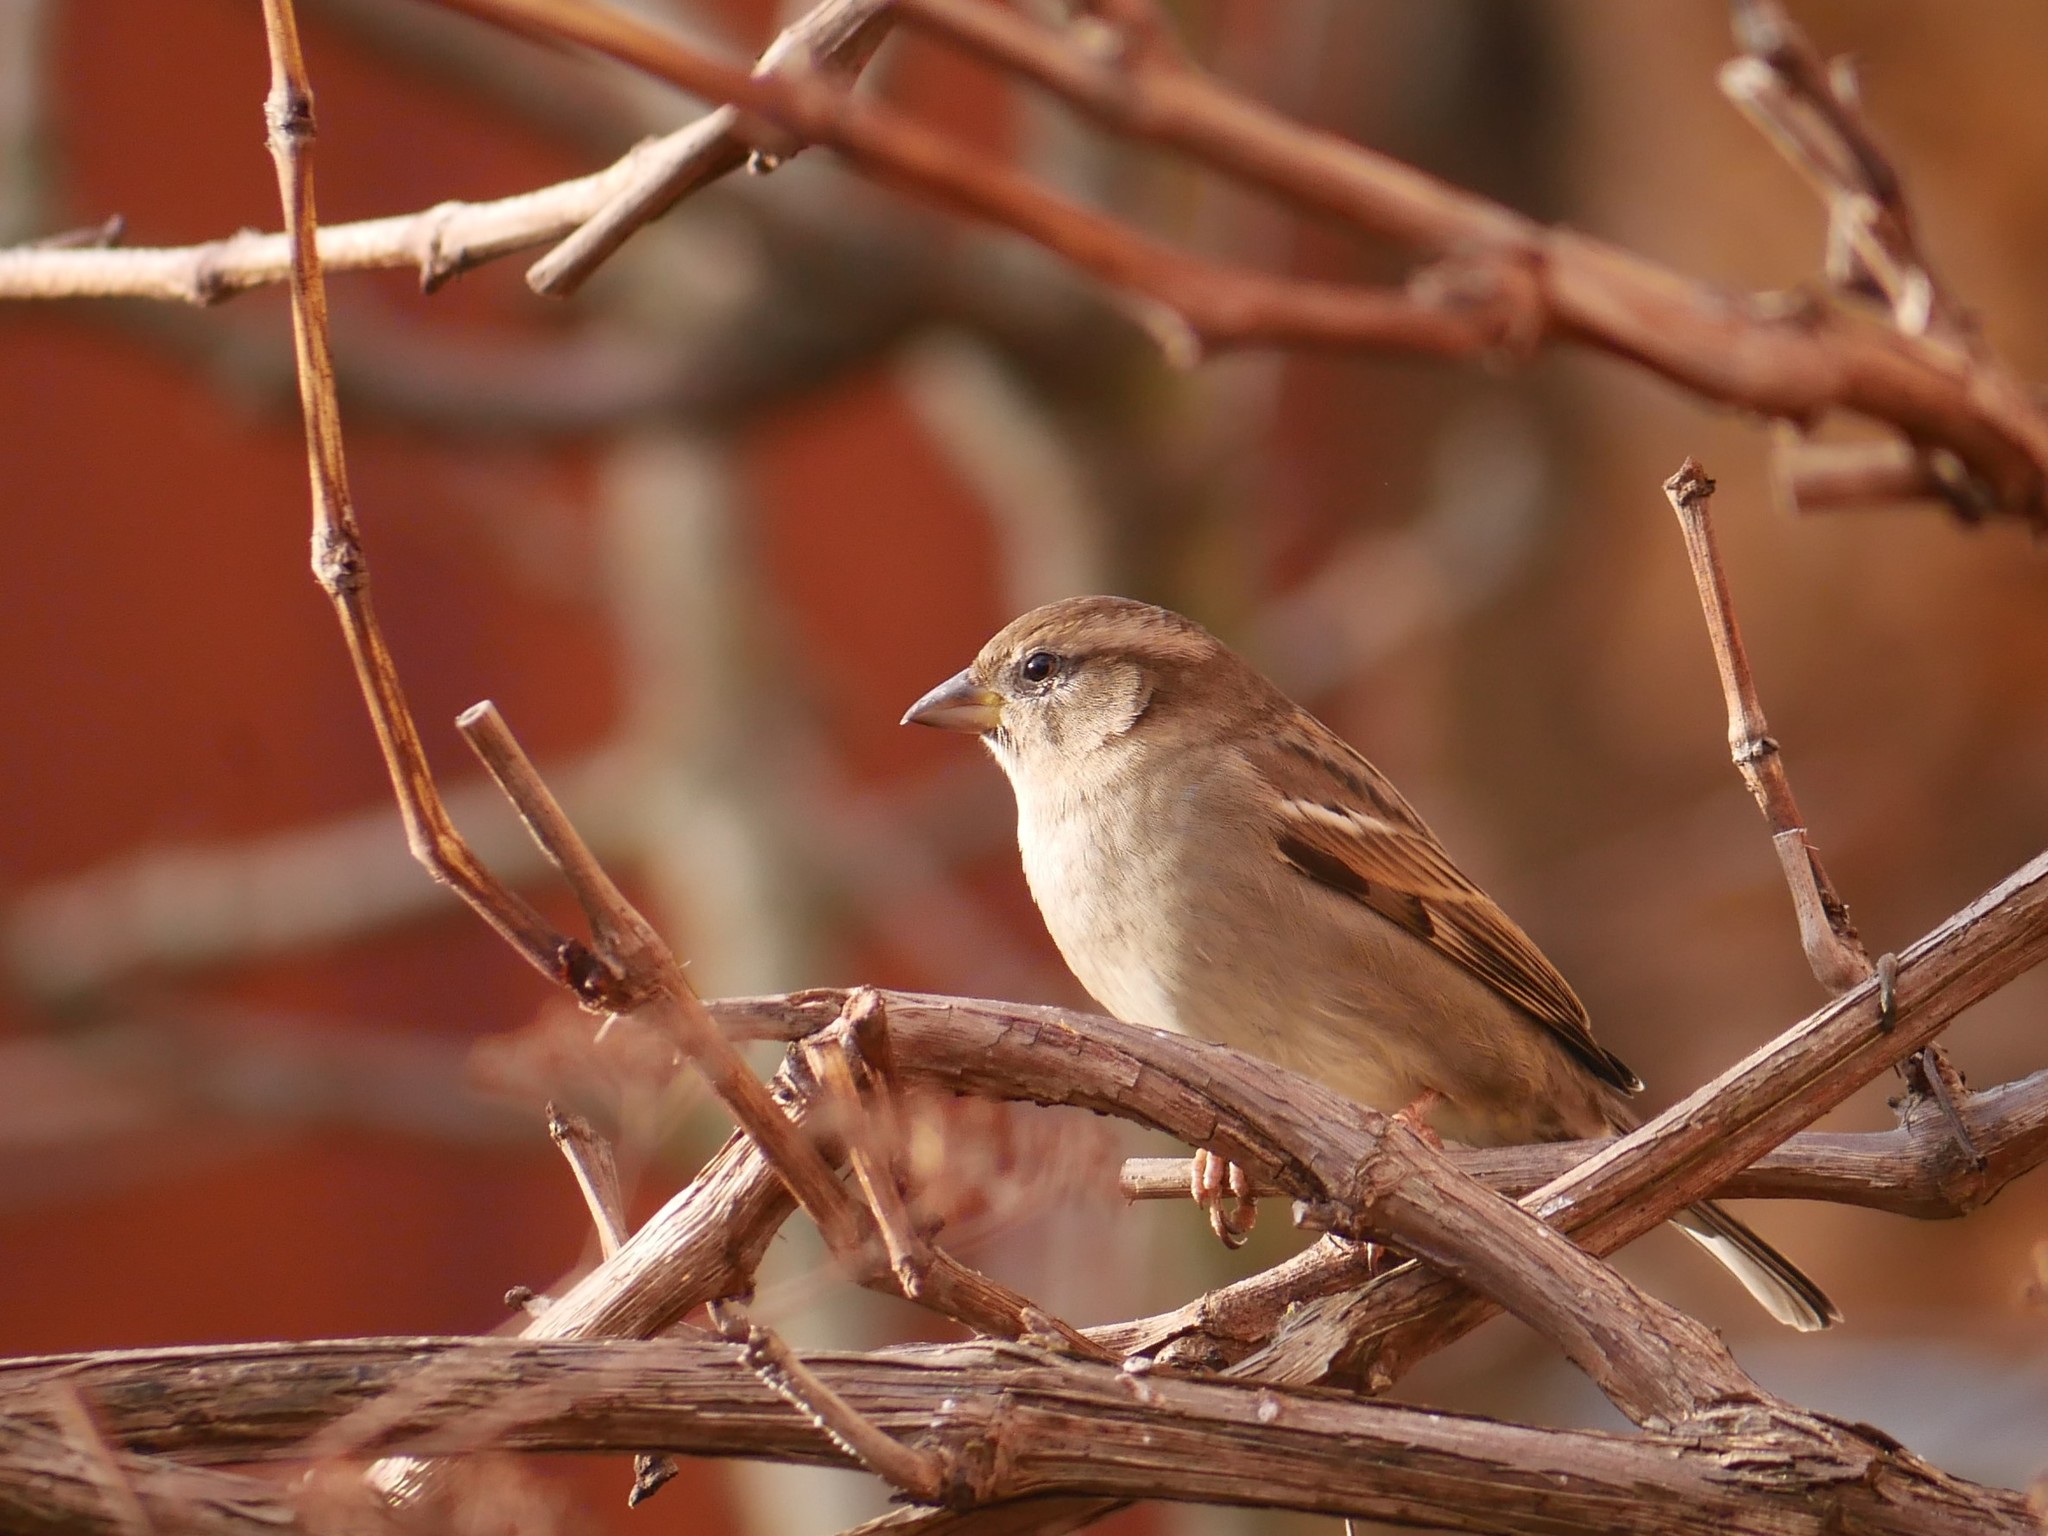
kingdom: Animalia
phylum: Chordata
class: Aves
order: Passeriformes
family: Passeridae
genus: Passer
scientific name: Passer domesticus
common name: House sparrow
